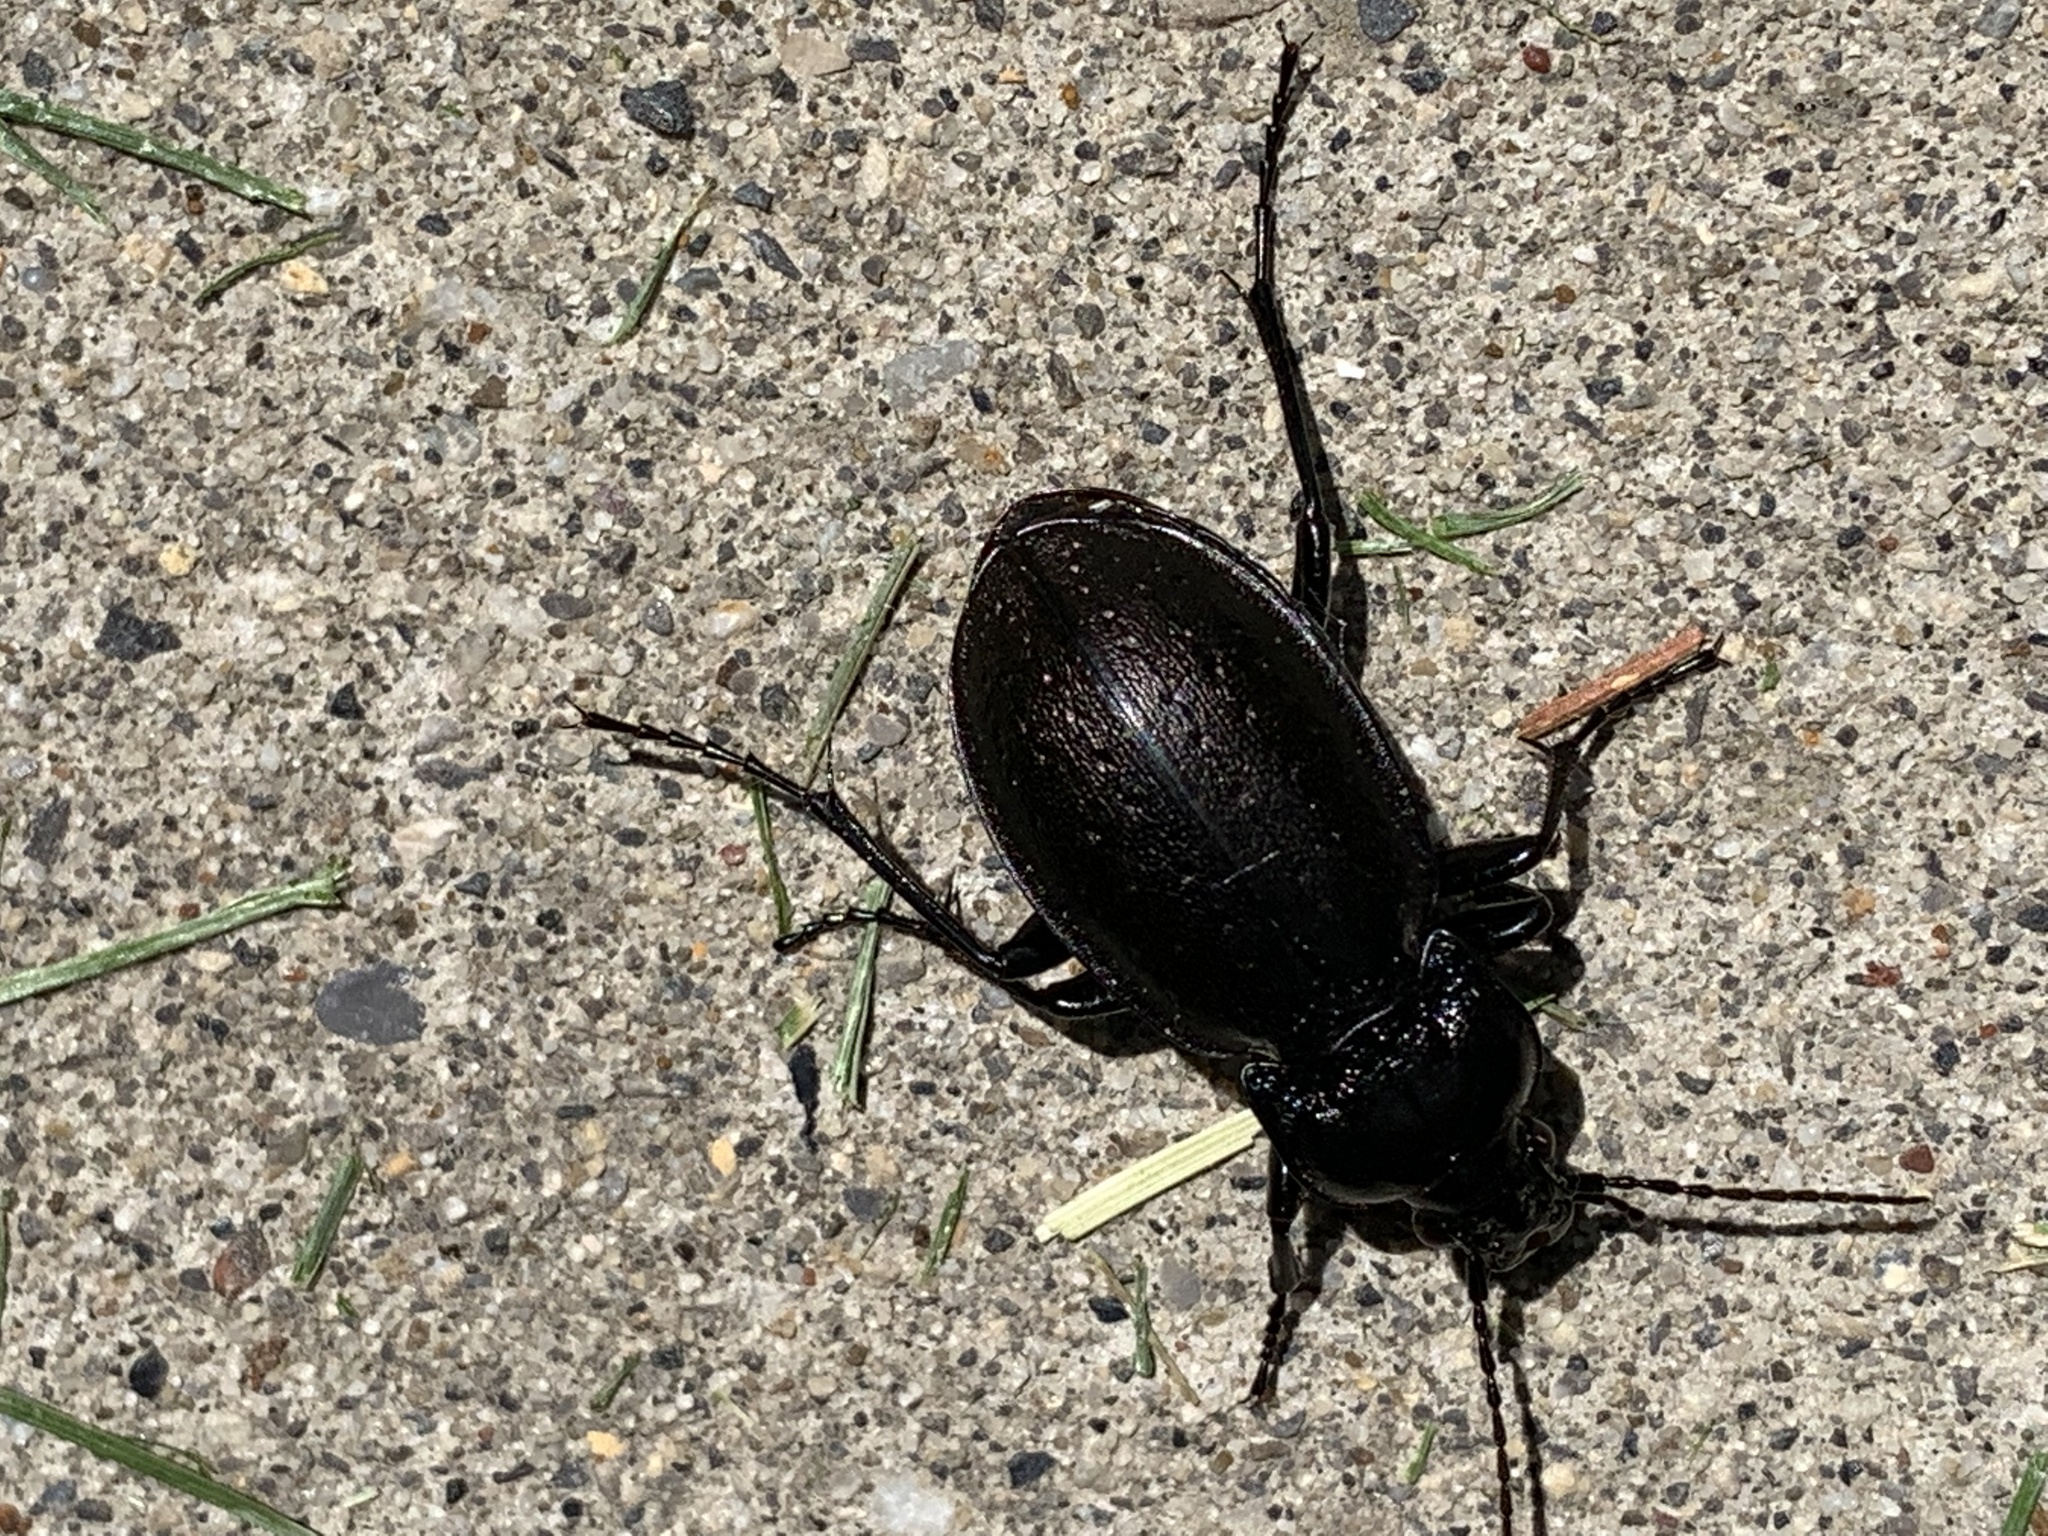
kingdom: Animalia
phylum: Arthropoda
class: Insecta
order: Coleoptera
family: Carabidae
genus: Carabus
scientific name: Carabus nemoralis
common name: European ground beetle
